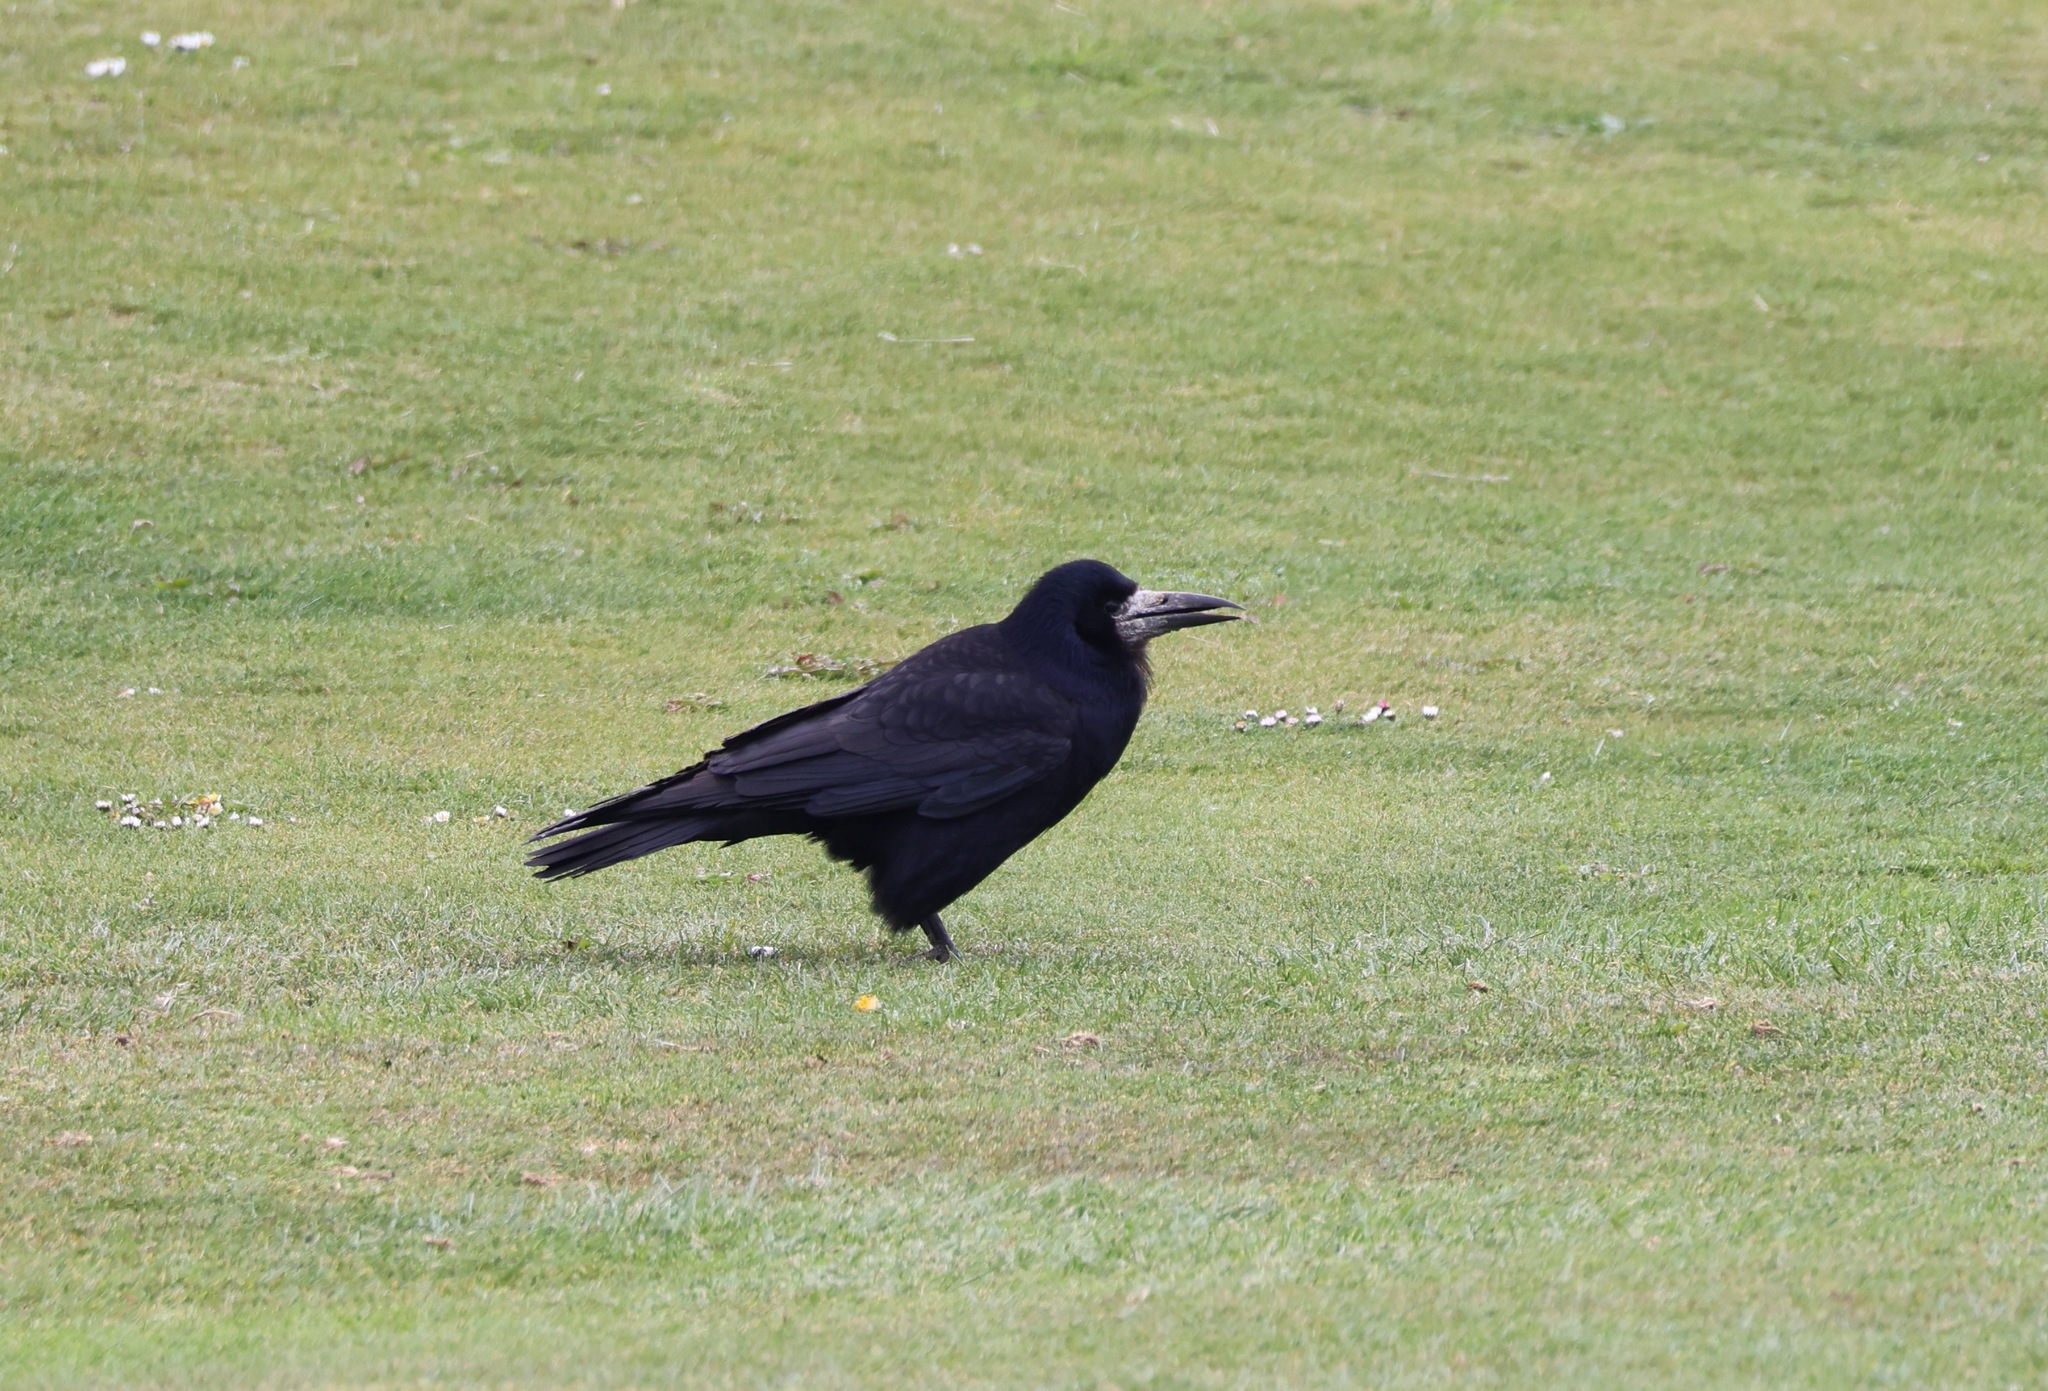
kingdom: Animalia
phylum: Chordata
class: Aves
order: Passeriformes
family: Corvidae
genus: Corvus
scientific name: Corvus frugilegus
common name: Rook
